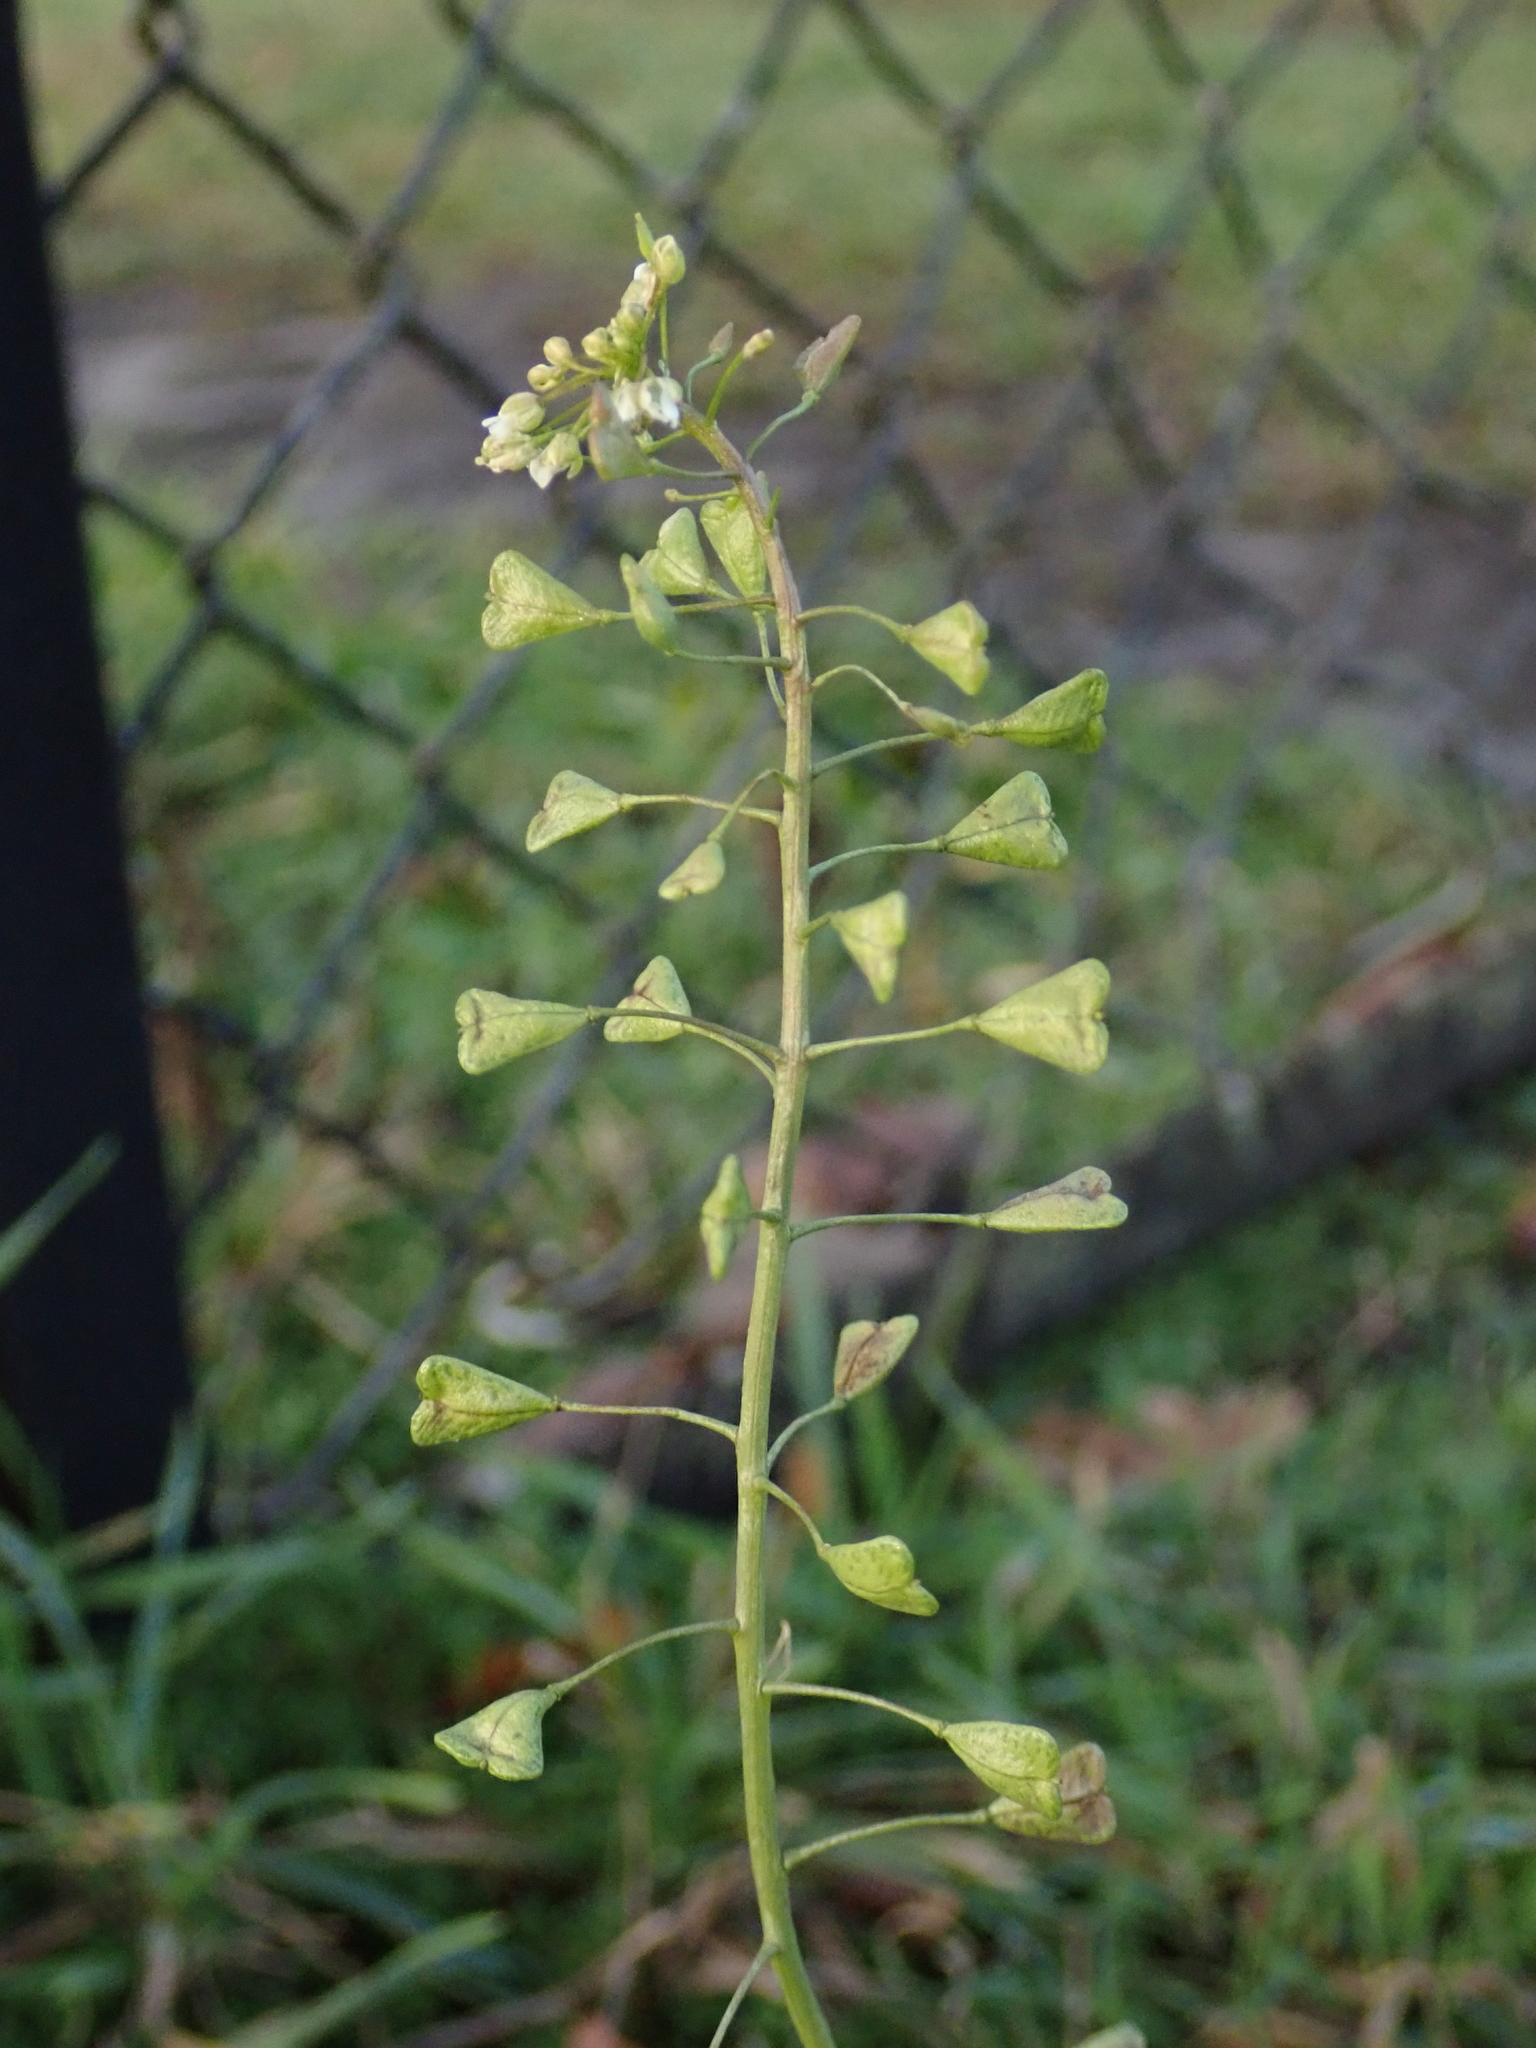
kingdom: Plantae
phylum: Tracheophyta
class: Magnoliopsida
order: Brassicales
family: Brassicaceae
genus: Capsella
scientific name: Capsella bursa-pastoris
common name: Shepherd's purse
